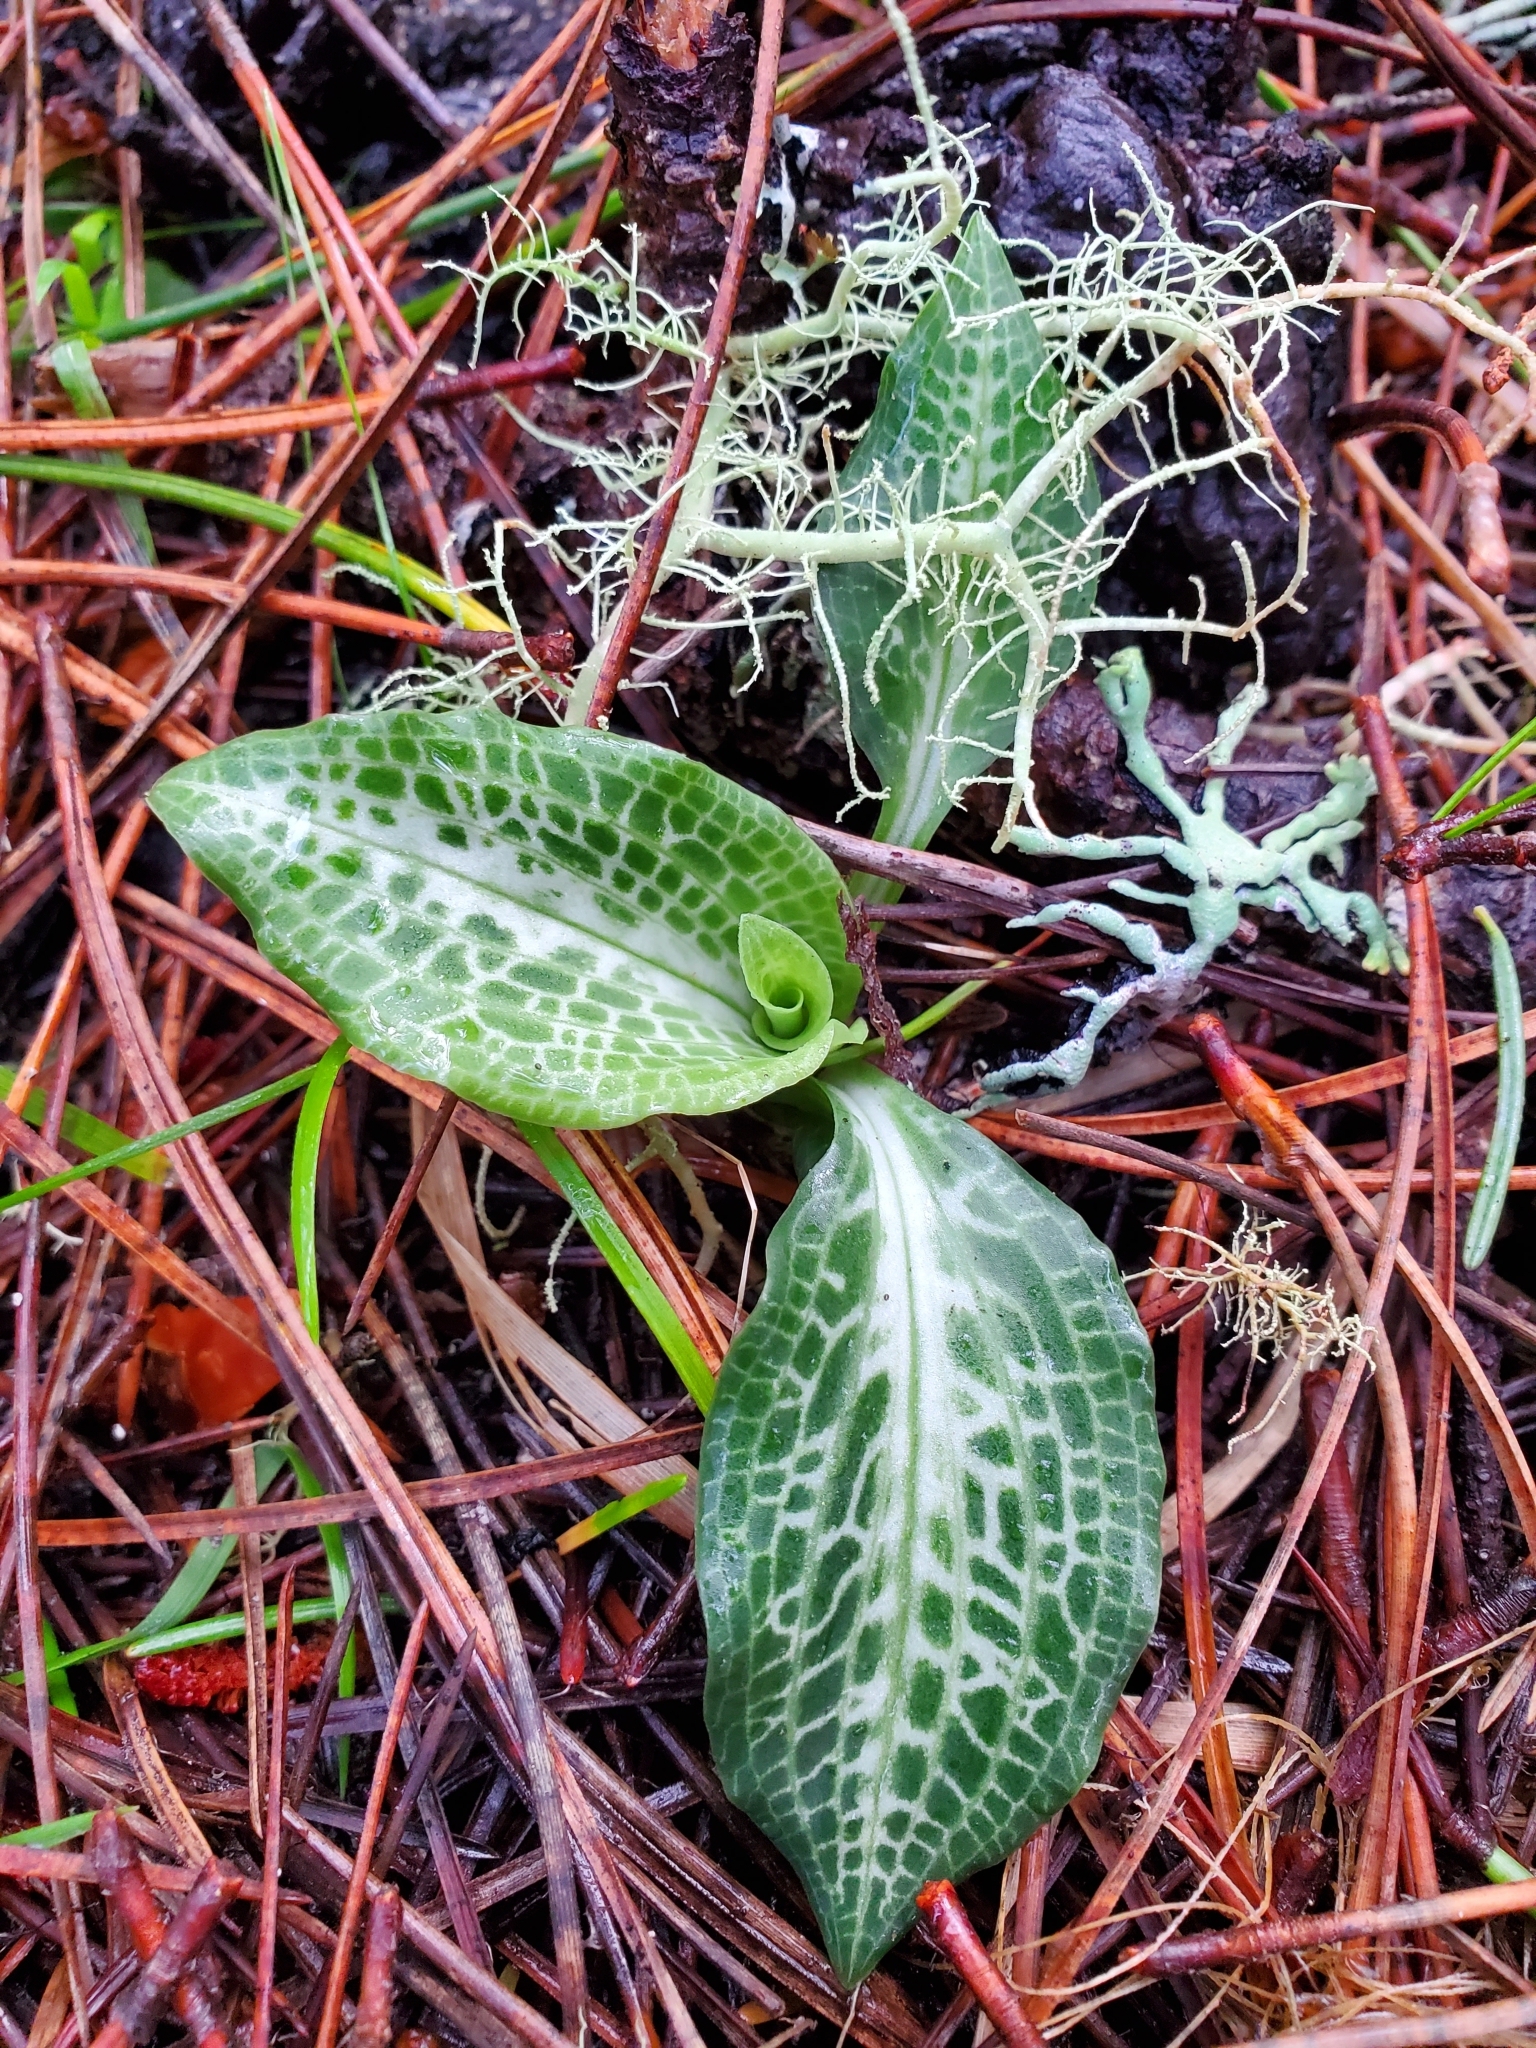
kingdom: Plantae
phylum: Tracheophyta
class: Liliopsida
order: Asparagales
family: Orchidaceae
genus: Goodyera
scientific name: Goodyera oblongifolia
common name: Giant rattlesnake-plantain
